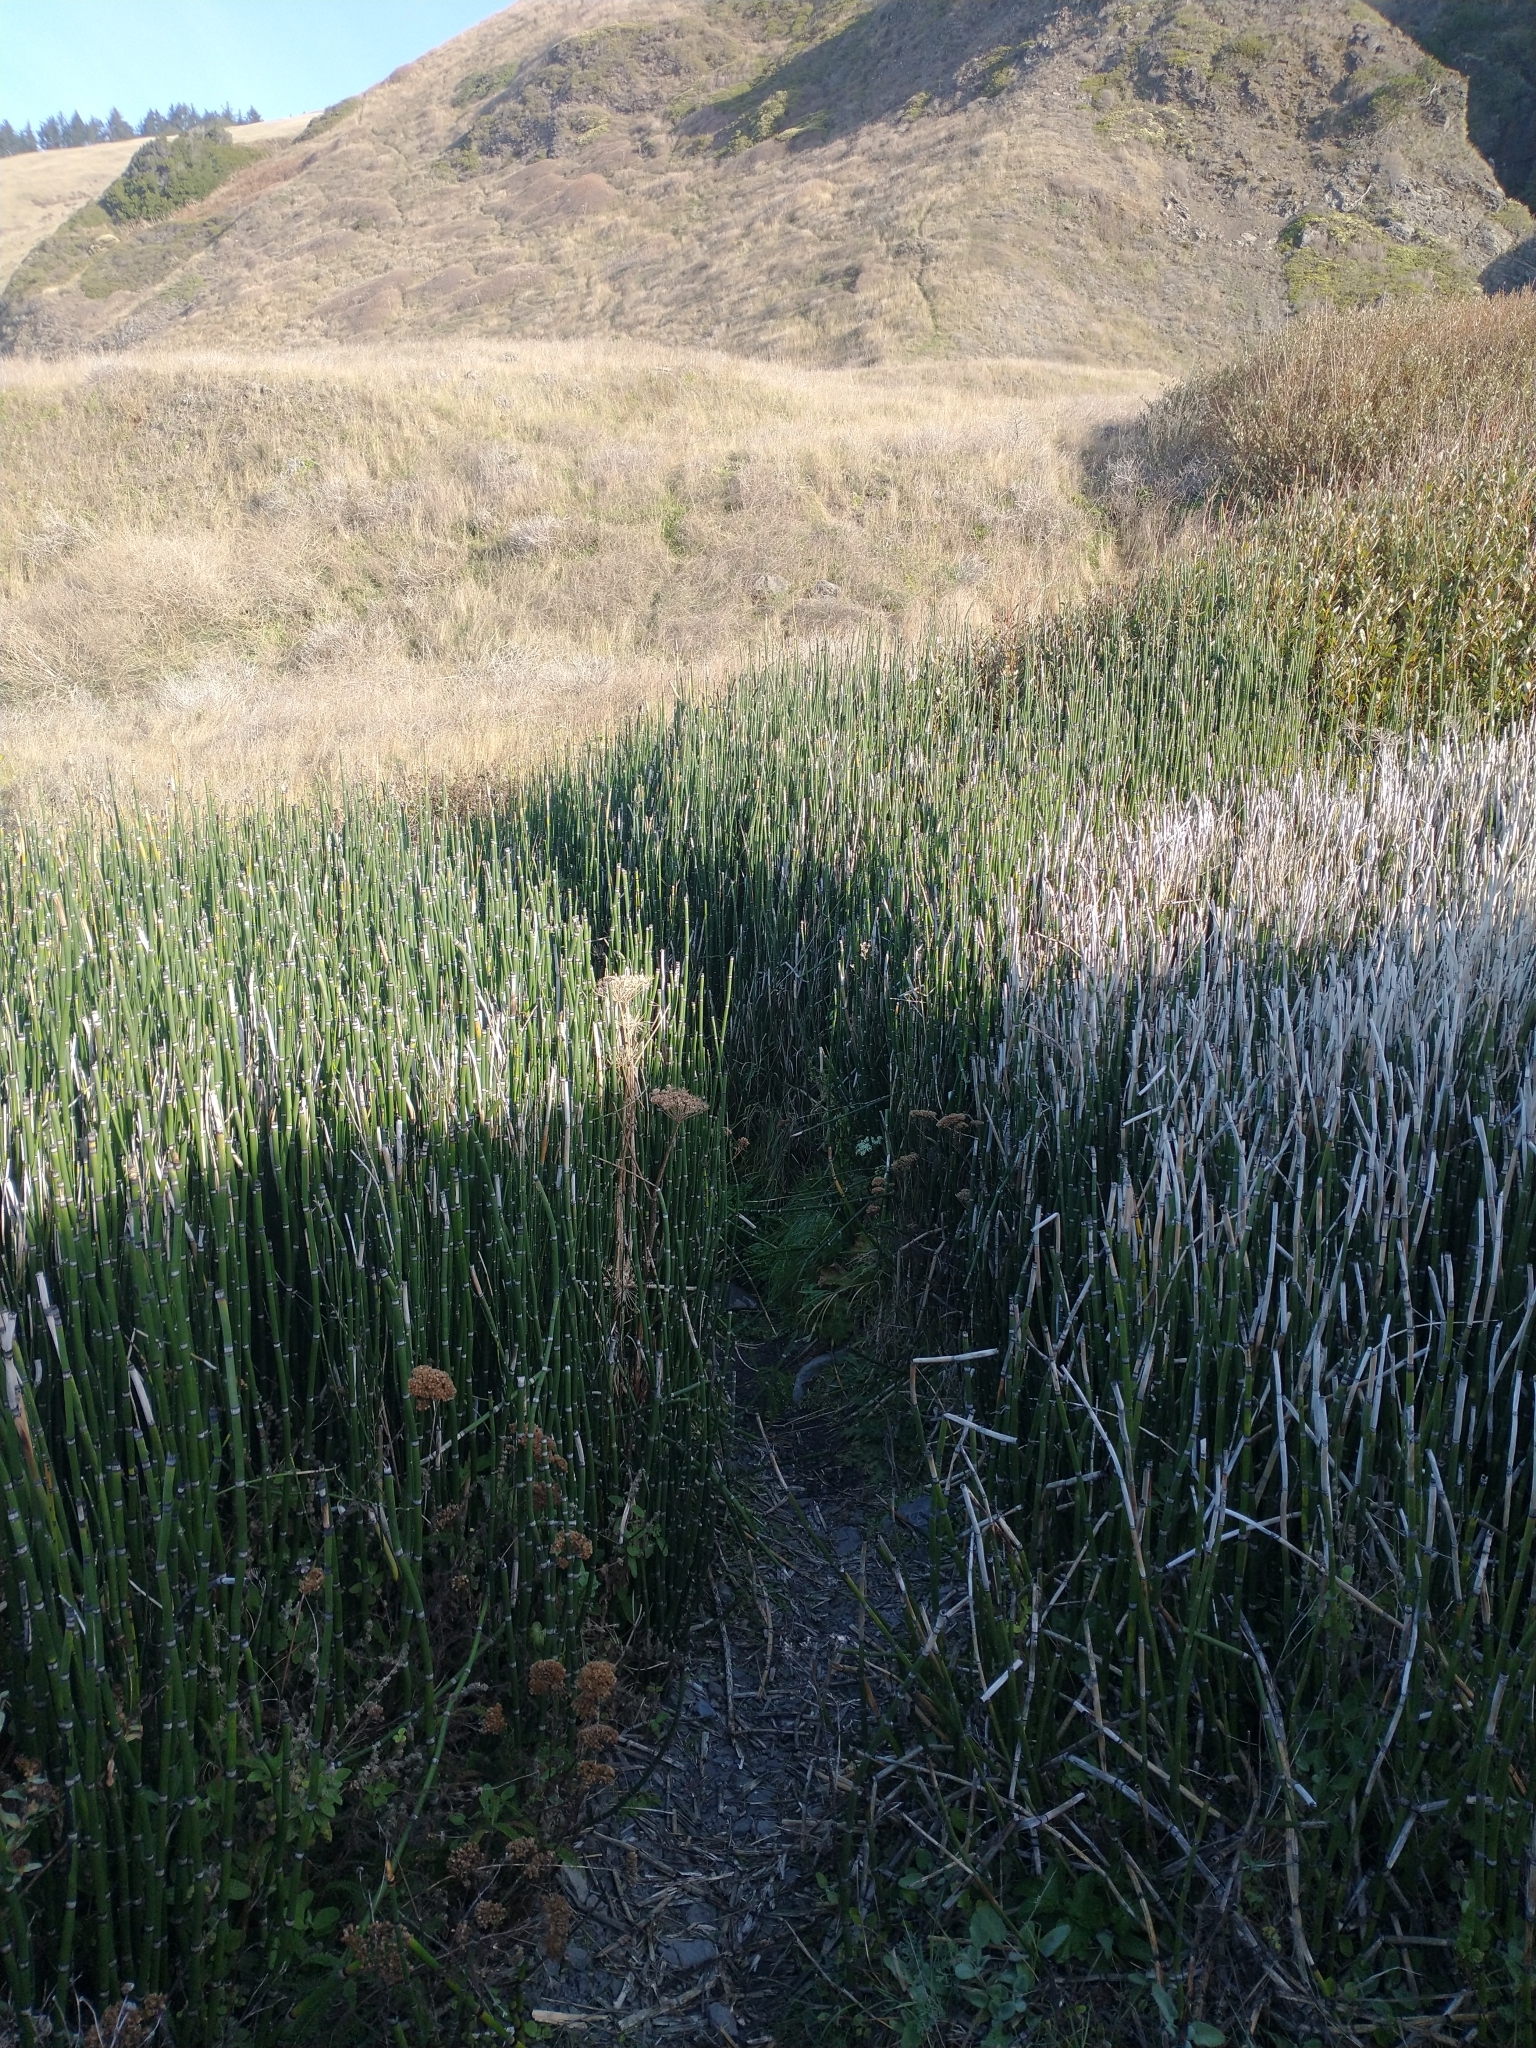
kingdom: Plantae
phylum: Tracheophyta
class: Polypodiopsida
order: Equisetales
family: Equisetaceae
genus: Equisetum
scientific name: Equisetum praealtum
